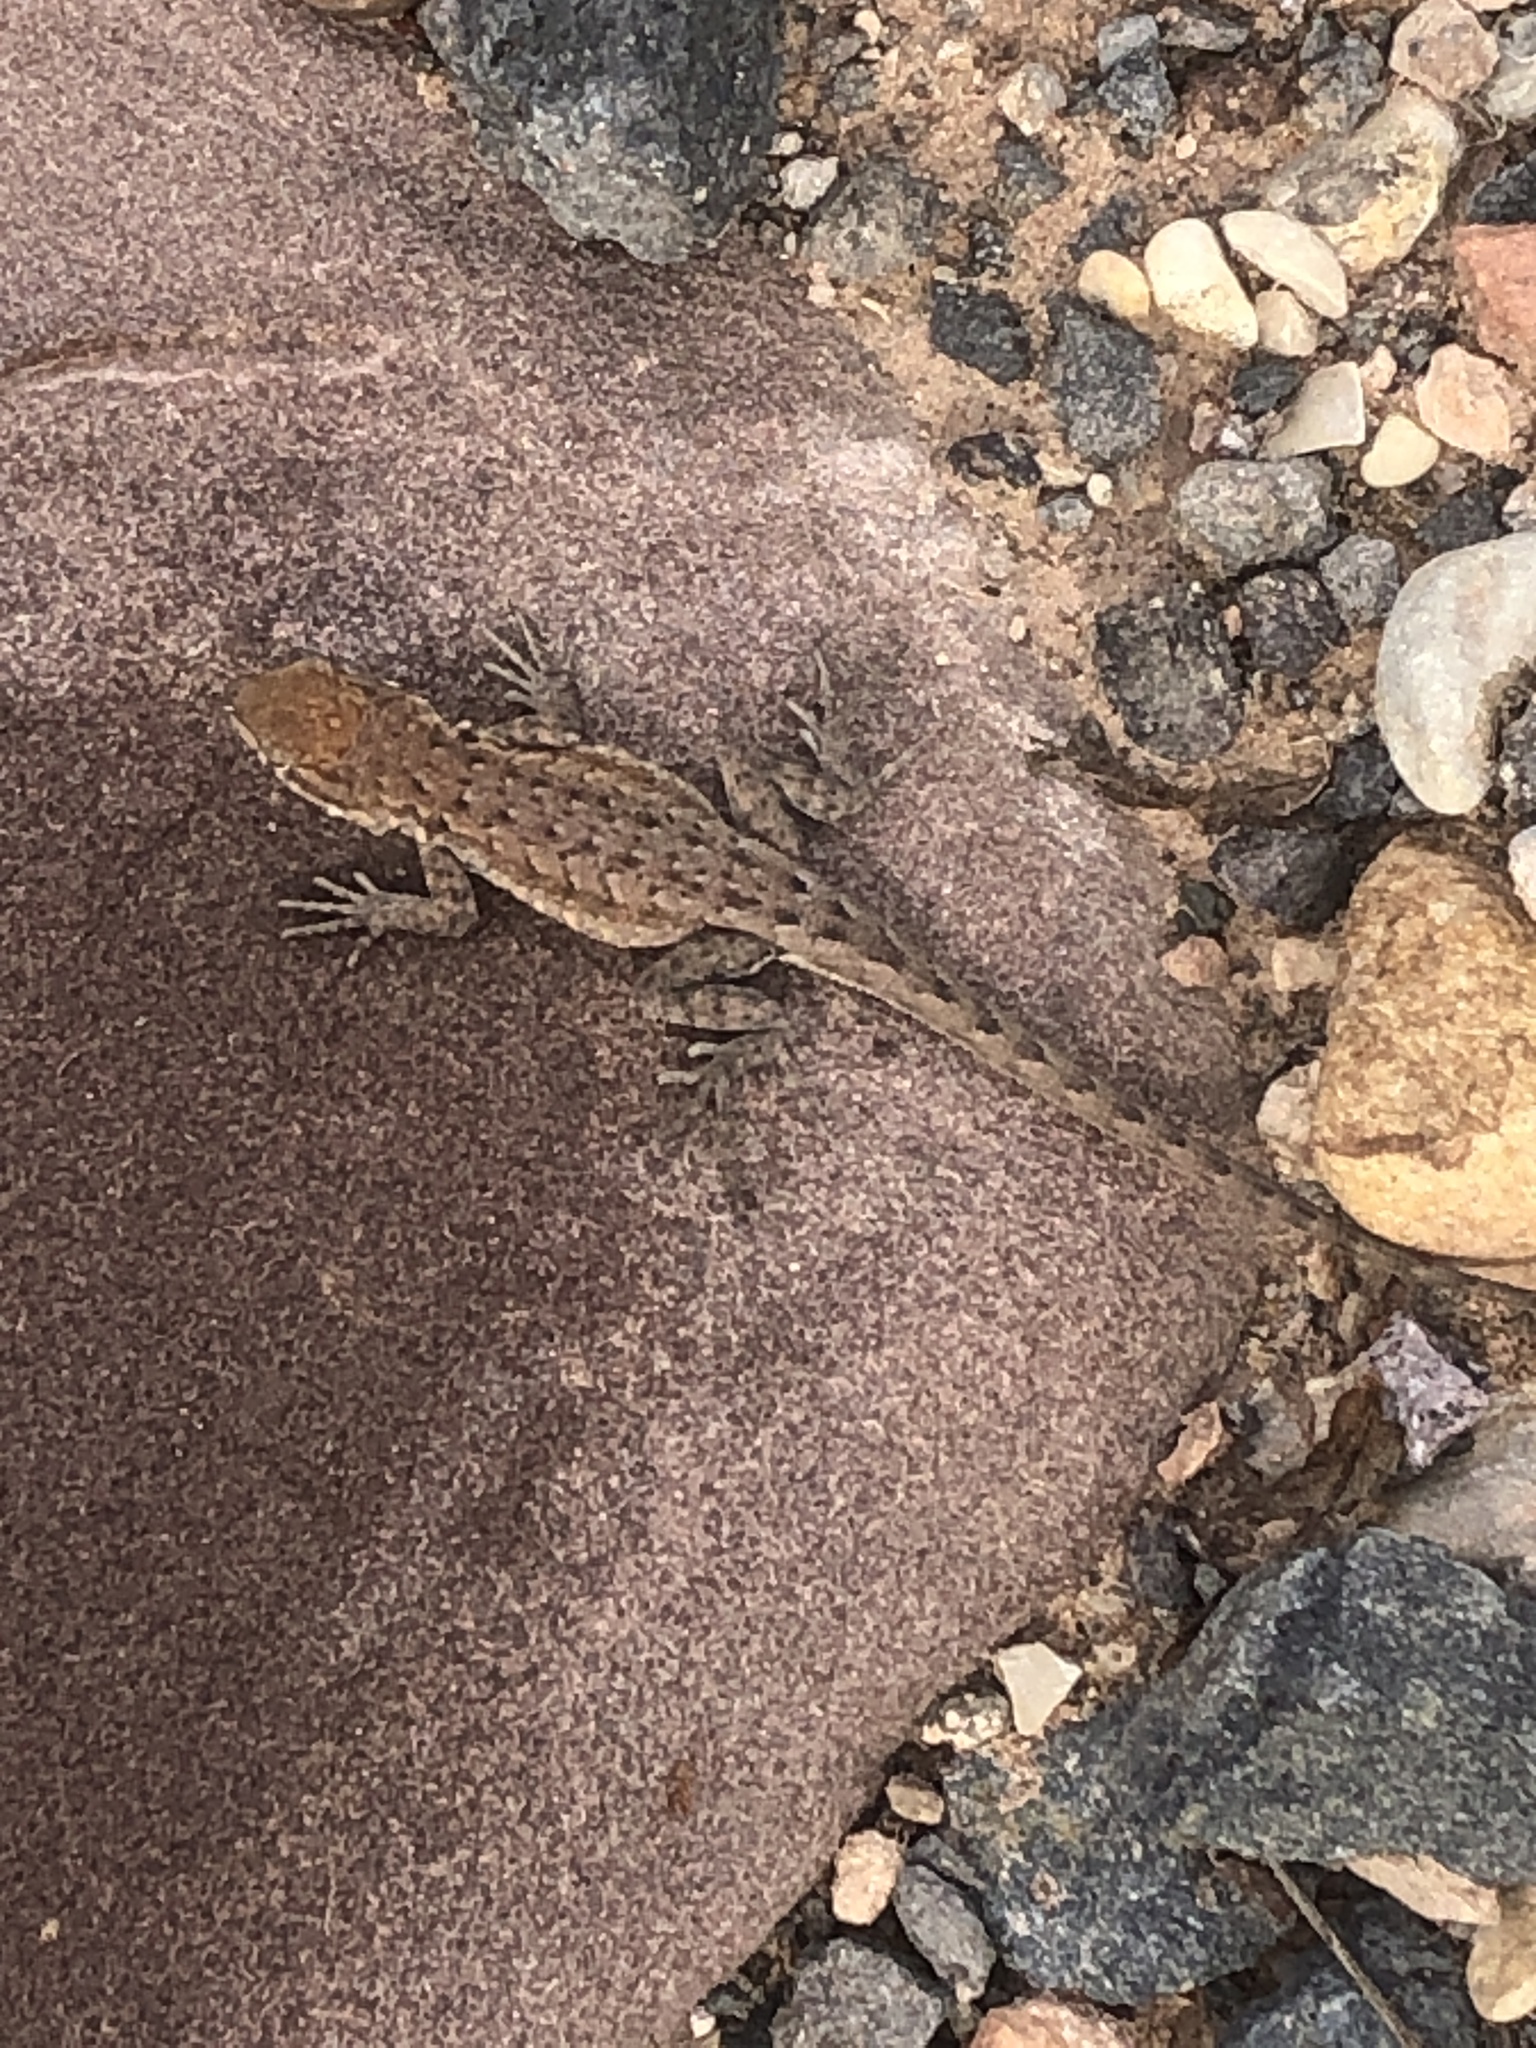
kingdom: Animalia
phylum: Chordata
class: Squamata
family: Phrynosomatidae
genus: Uta
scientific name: Uta stansburiana
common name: Side-blotched lizard
